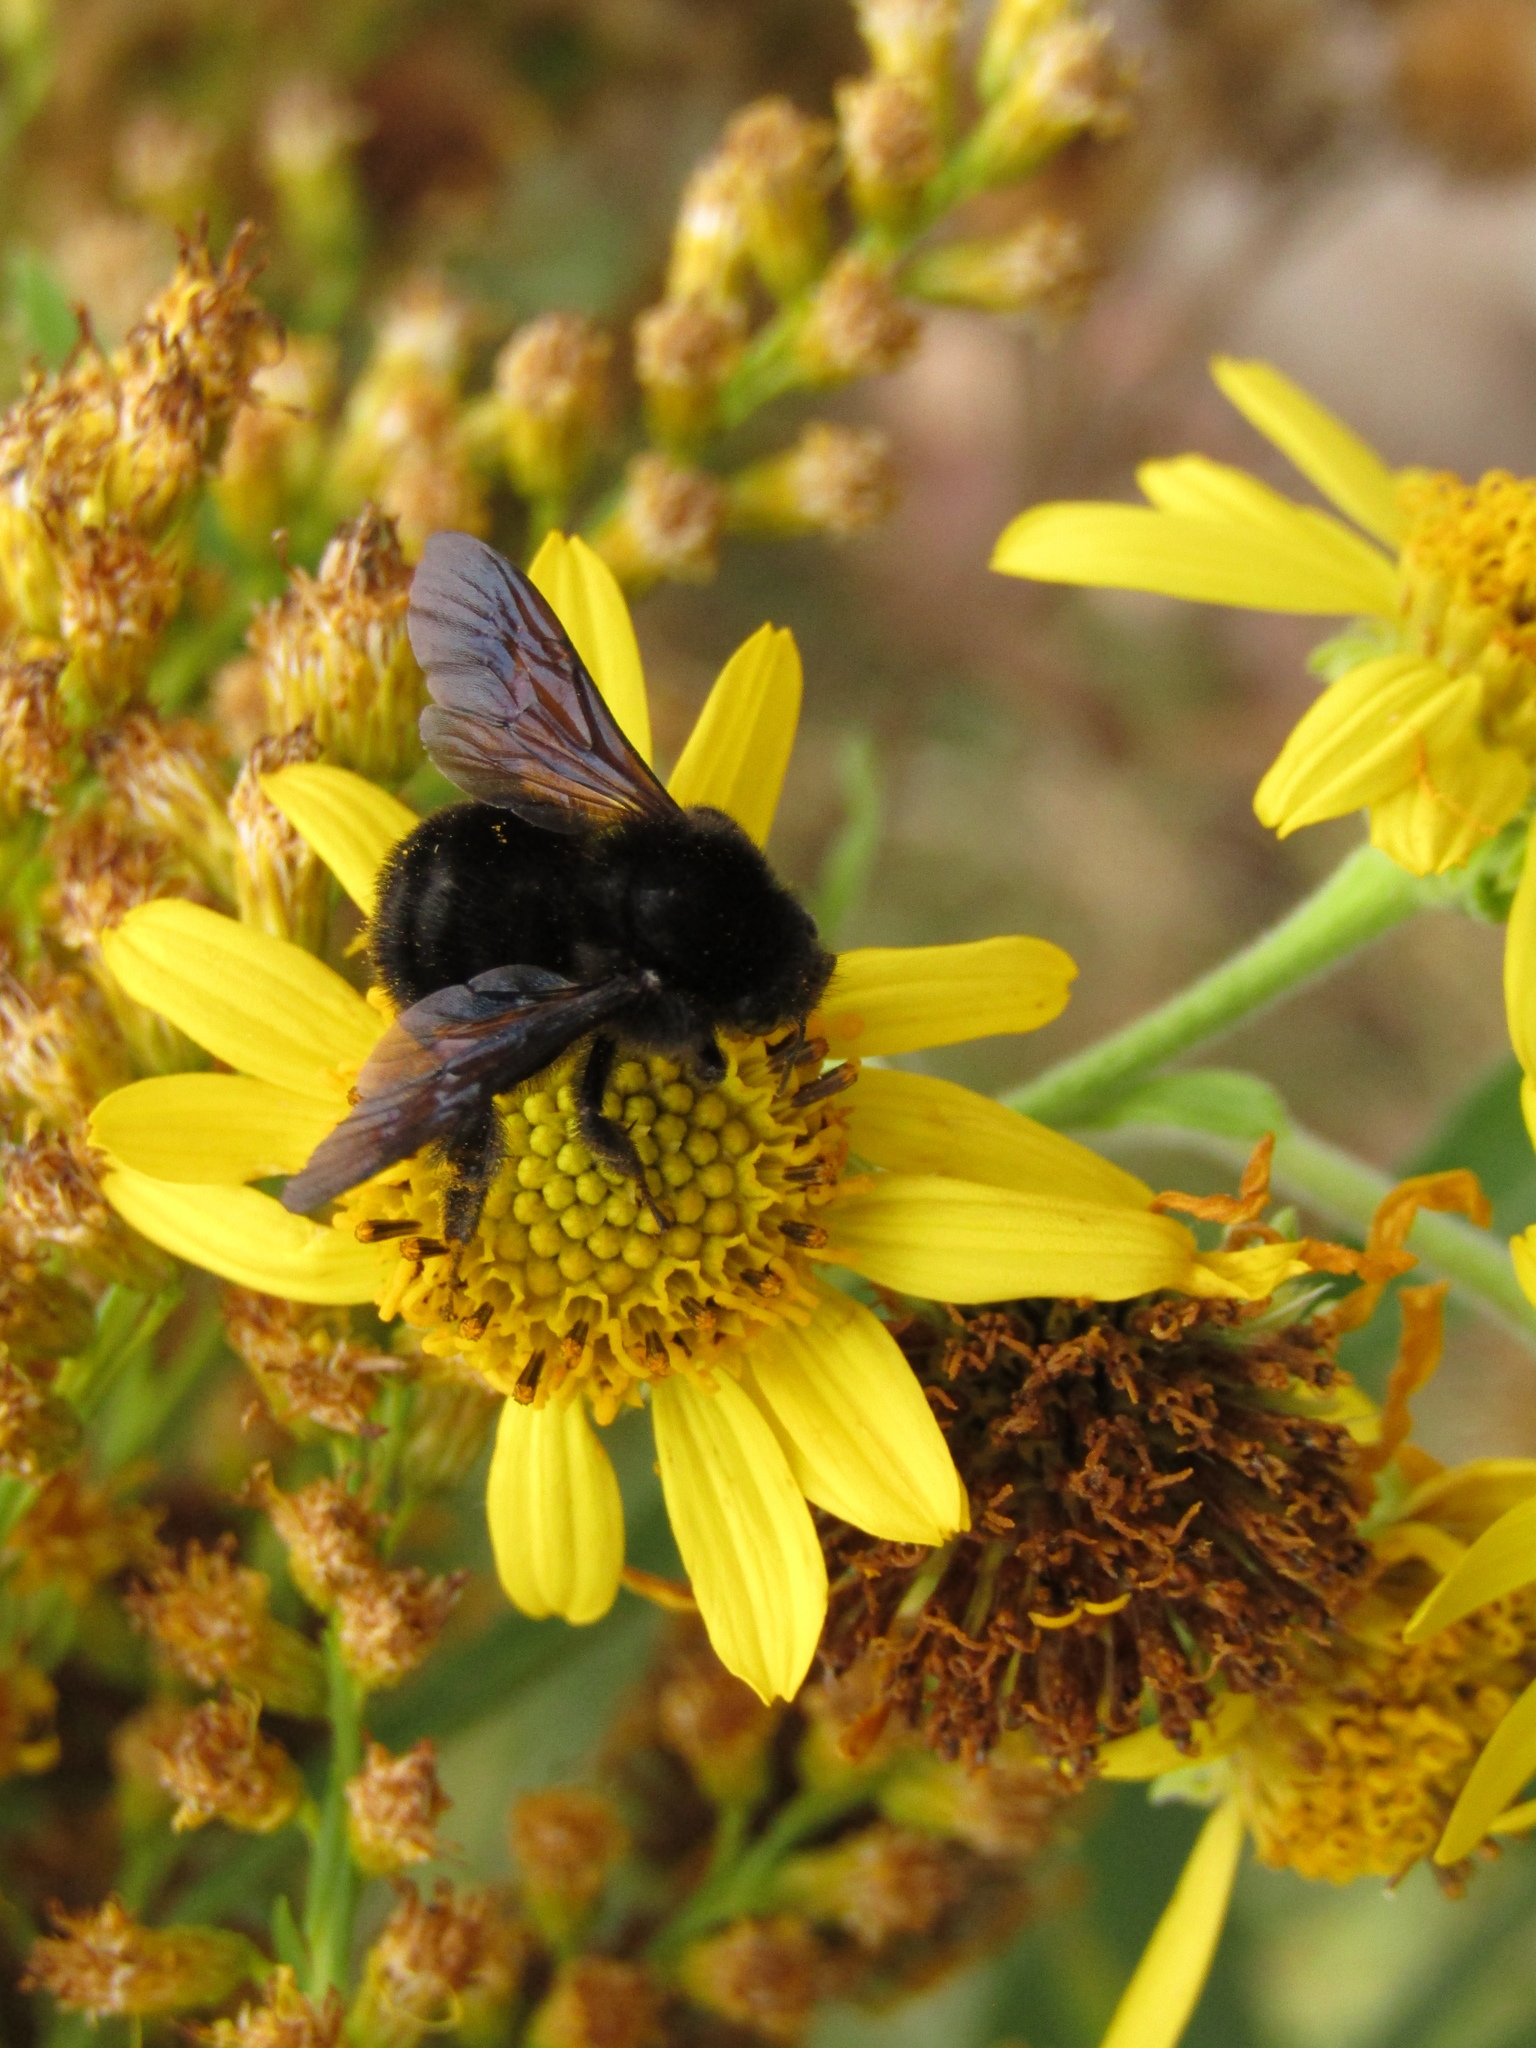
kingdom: Animalia
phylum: Arthropoda
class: Insecta
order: Hymenoptera
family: Apidae
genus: Bombus
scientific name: Bombus pauloensis
